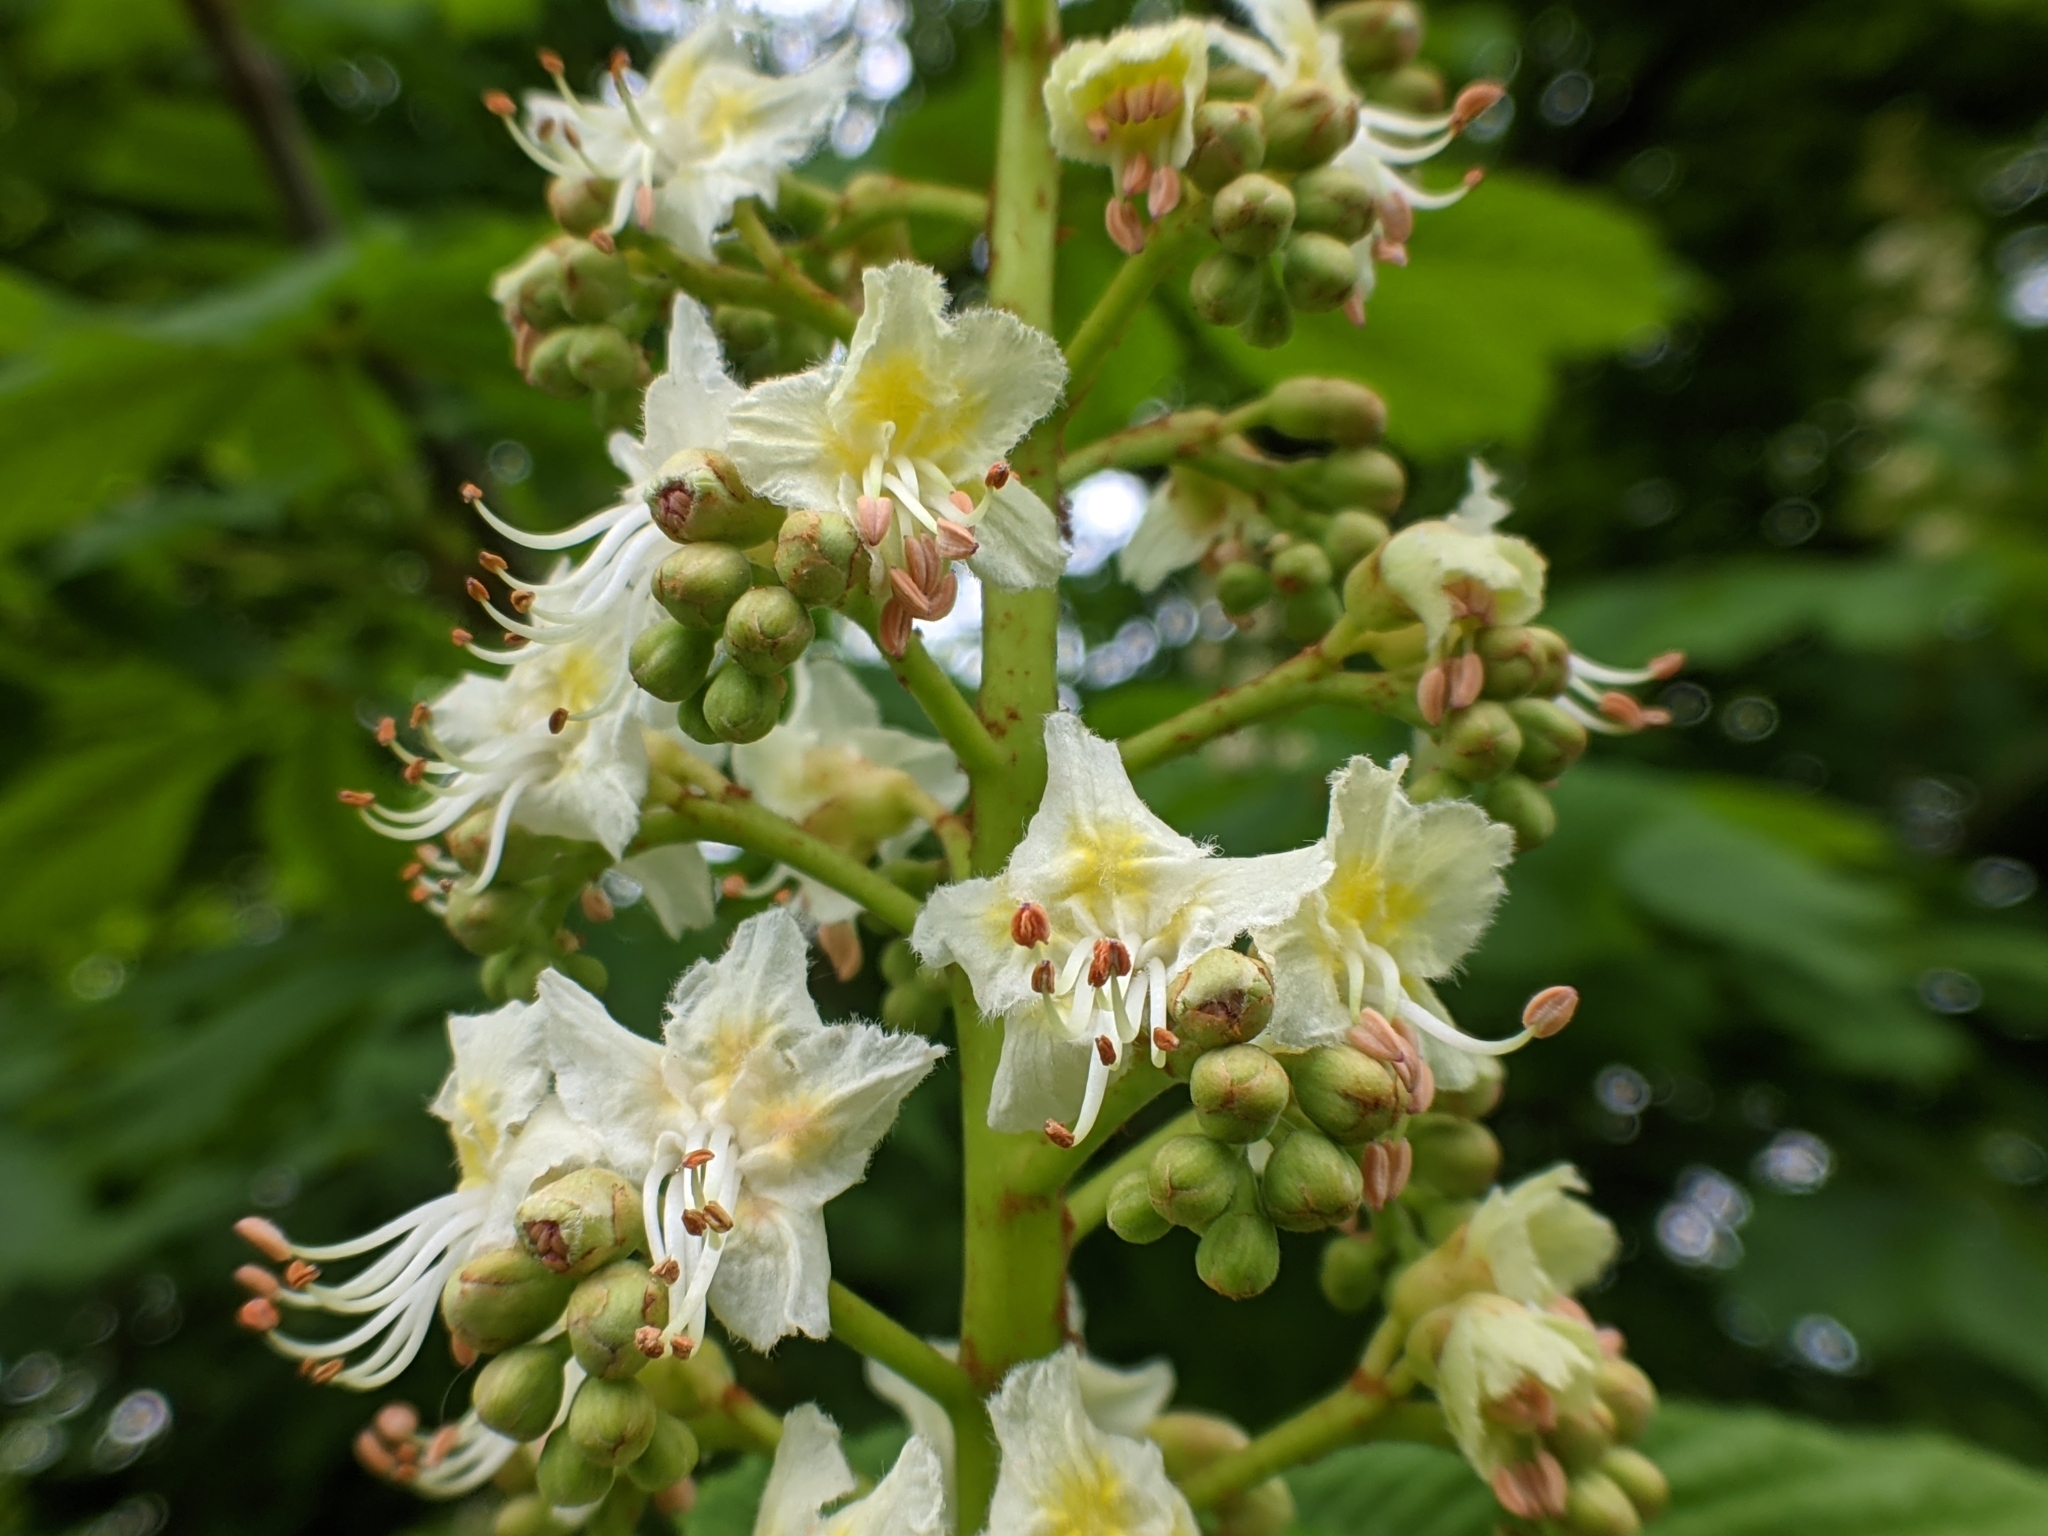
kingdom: Plantae
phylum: Tracheophyta
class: Magnoliopsida
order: Sapindales
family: Sapindaceae
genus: Aesculus
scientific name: Aesculus hippocastanum
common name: Horse-chestnut
